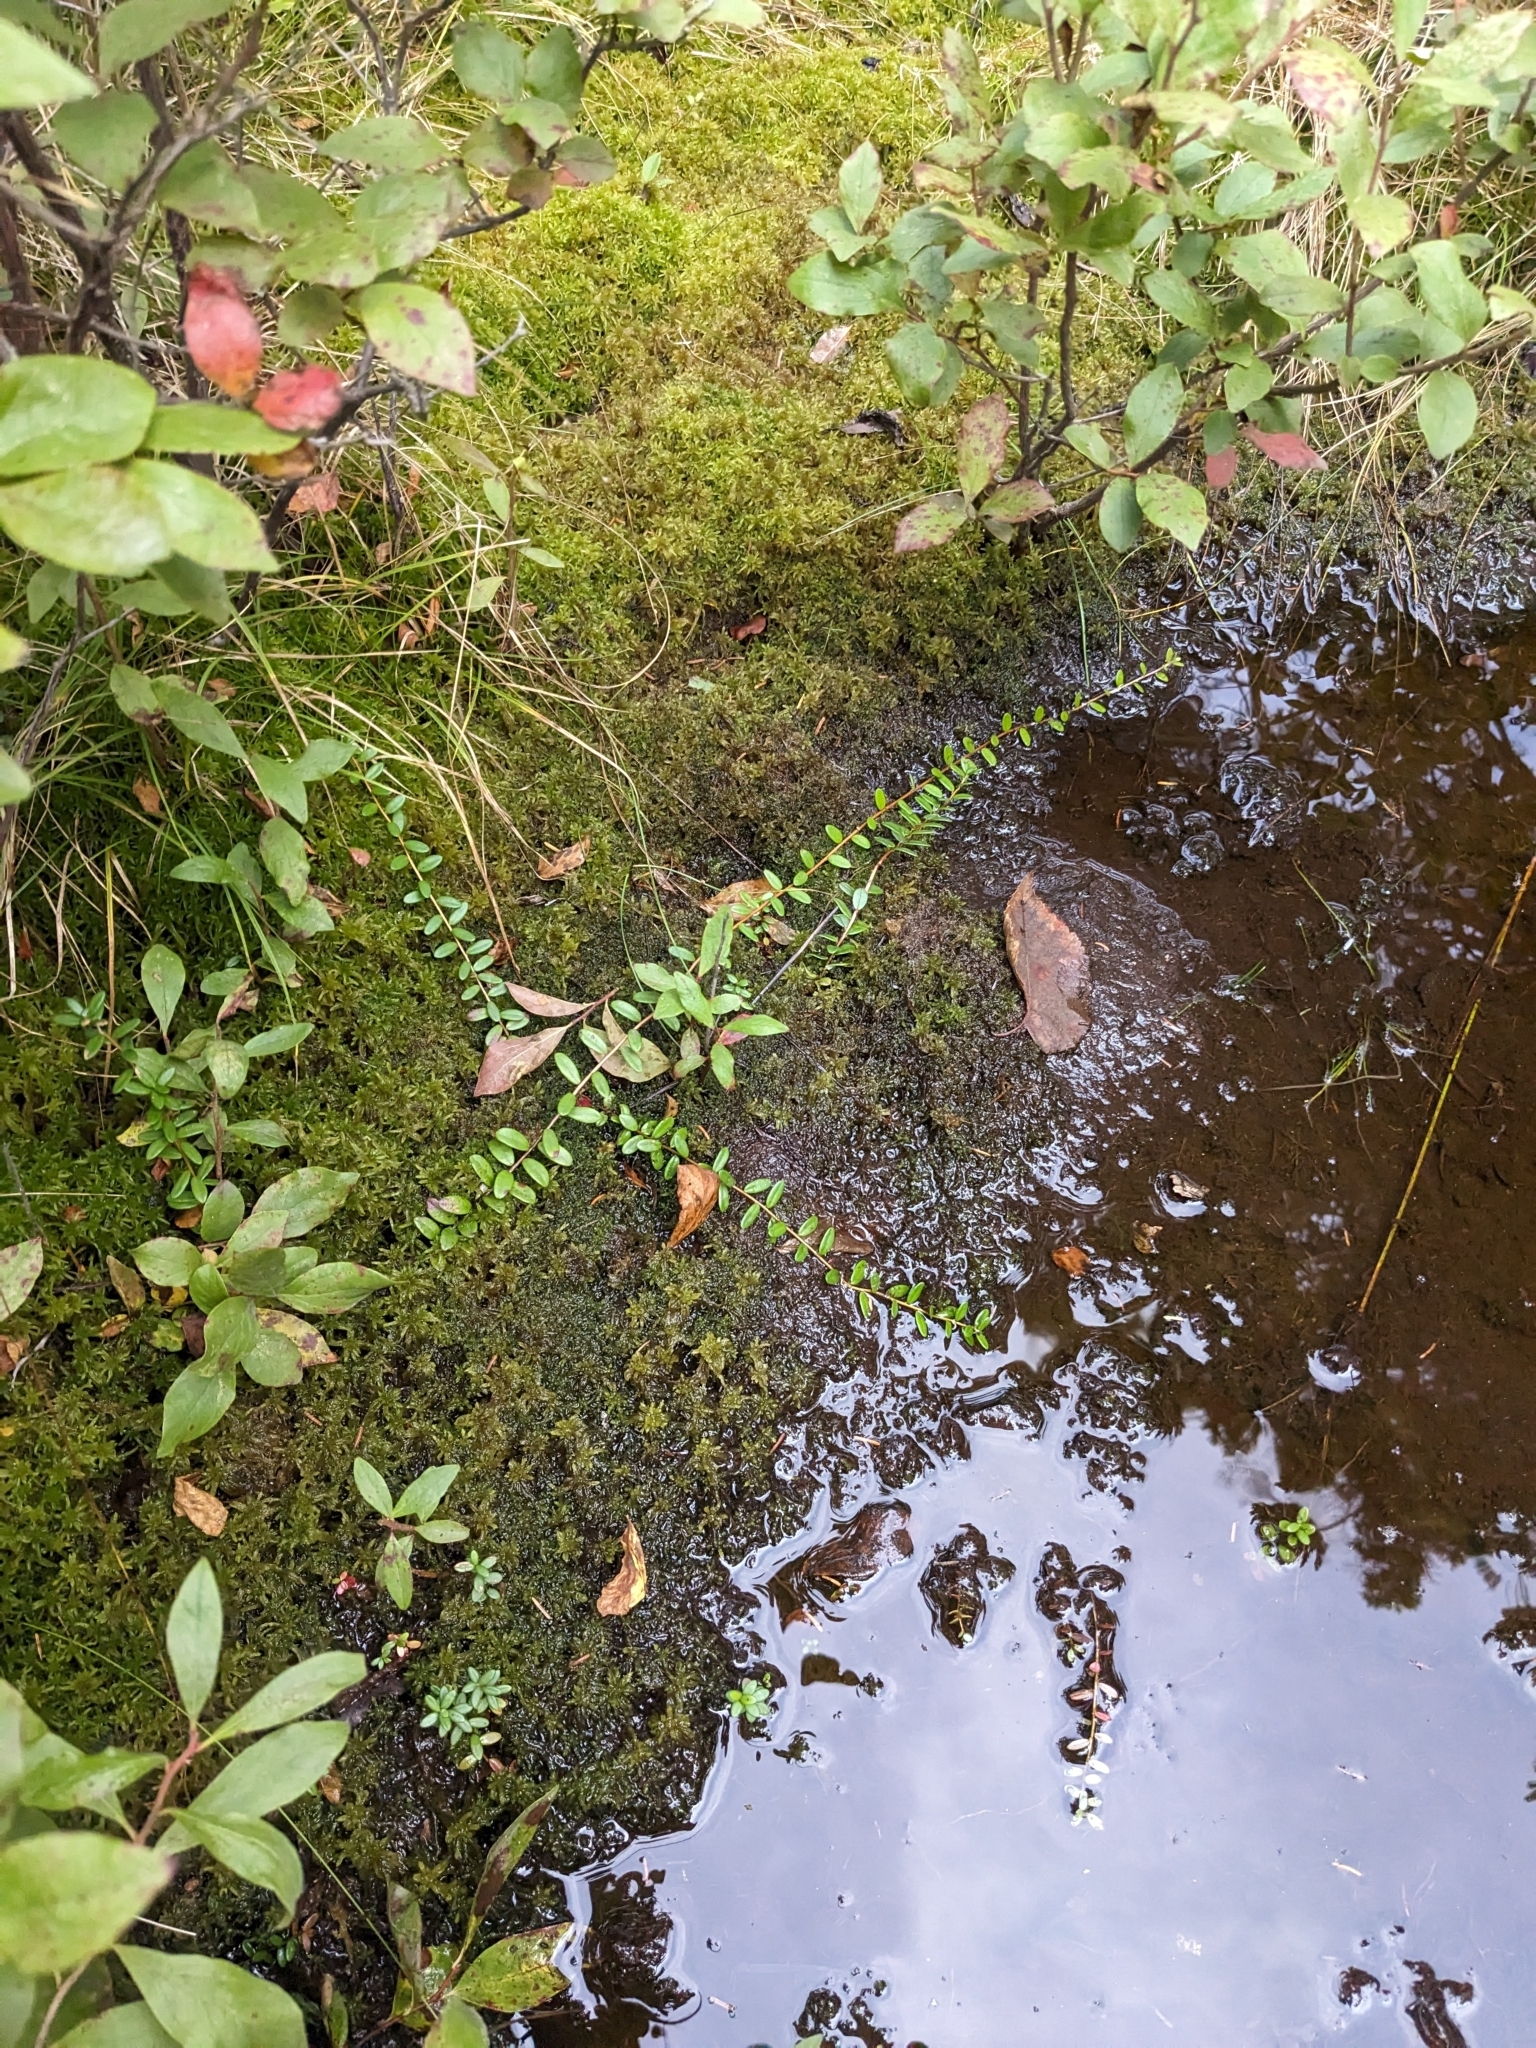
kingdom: Plantae
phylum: Tracheophyta
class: Magnoliopsida
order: Ericales
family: Ericaceae
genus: Vaccinium
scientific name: Vaccinium macrocarpon
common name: American cranberry
